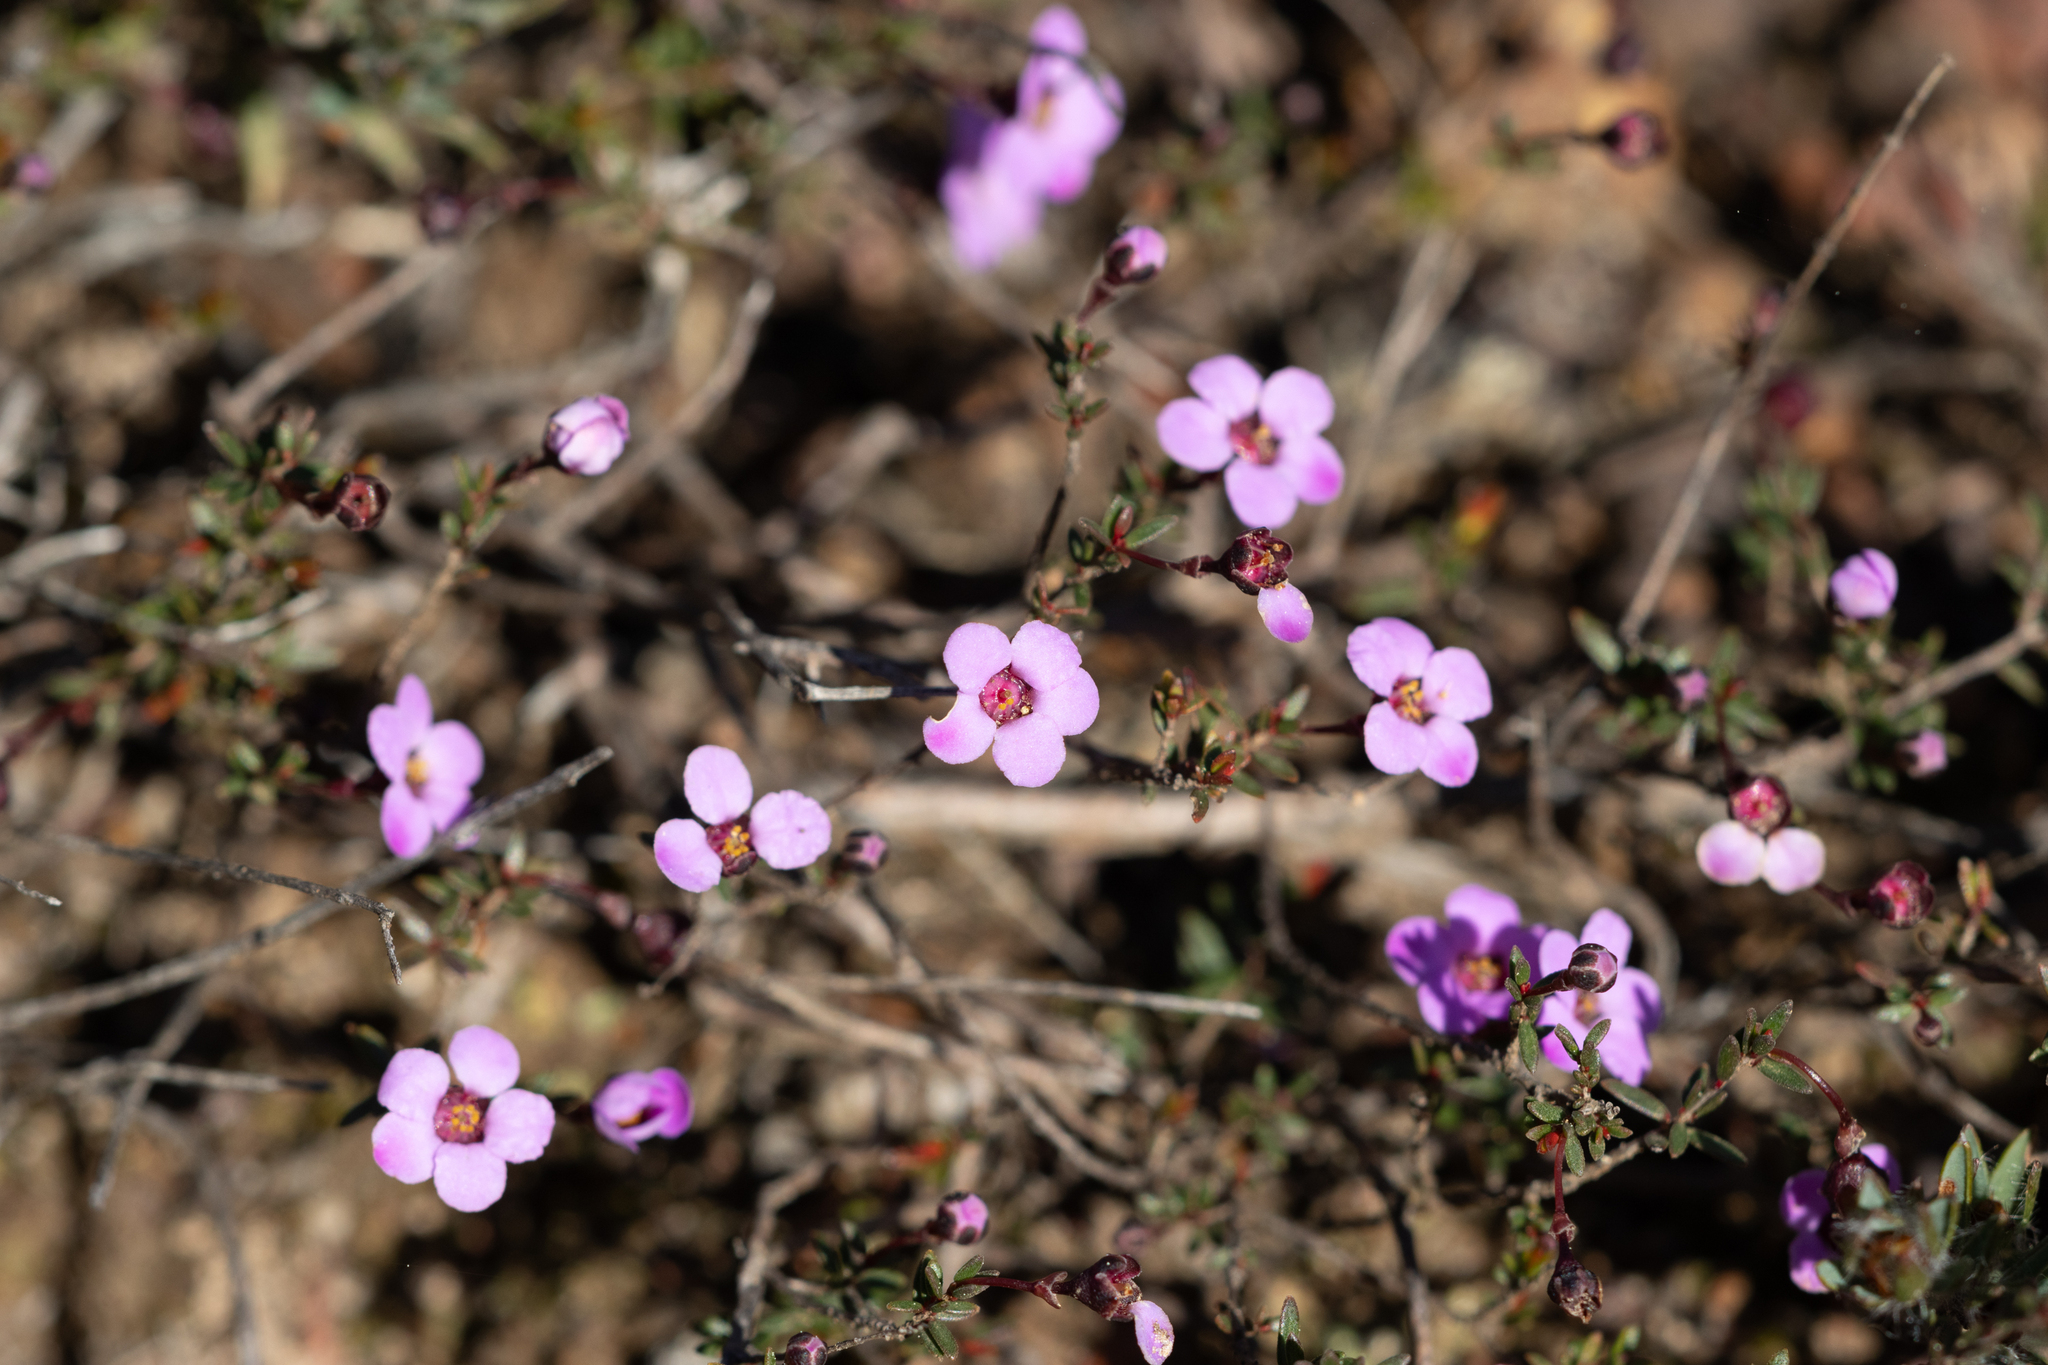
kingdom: Plantae
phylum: Tracheophyta
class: Magnoliopsida
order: Myrtales
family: Myrtaceae
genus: Euryomyrtus
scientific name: Euryomyrtus ramosissima
